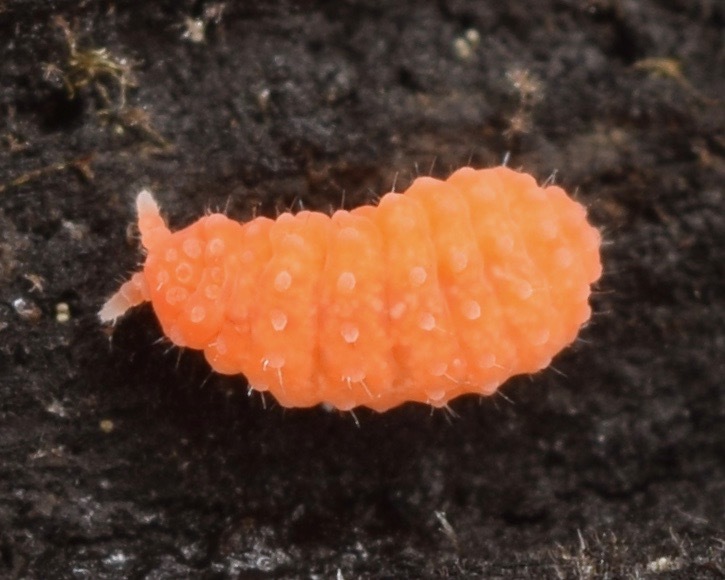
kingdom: Animalia
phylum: Arthropoda
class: Collembola
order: Poduromorpha
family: Neanuridae
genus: Vitronura
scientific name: Vitronura giselae
